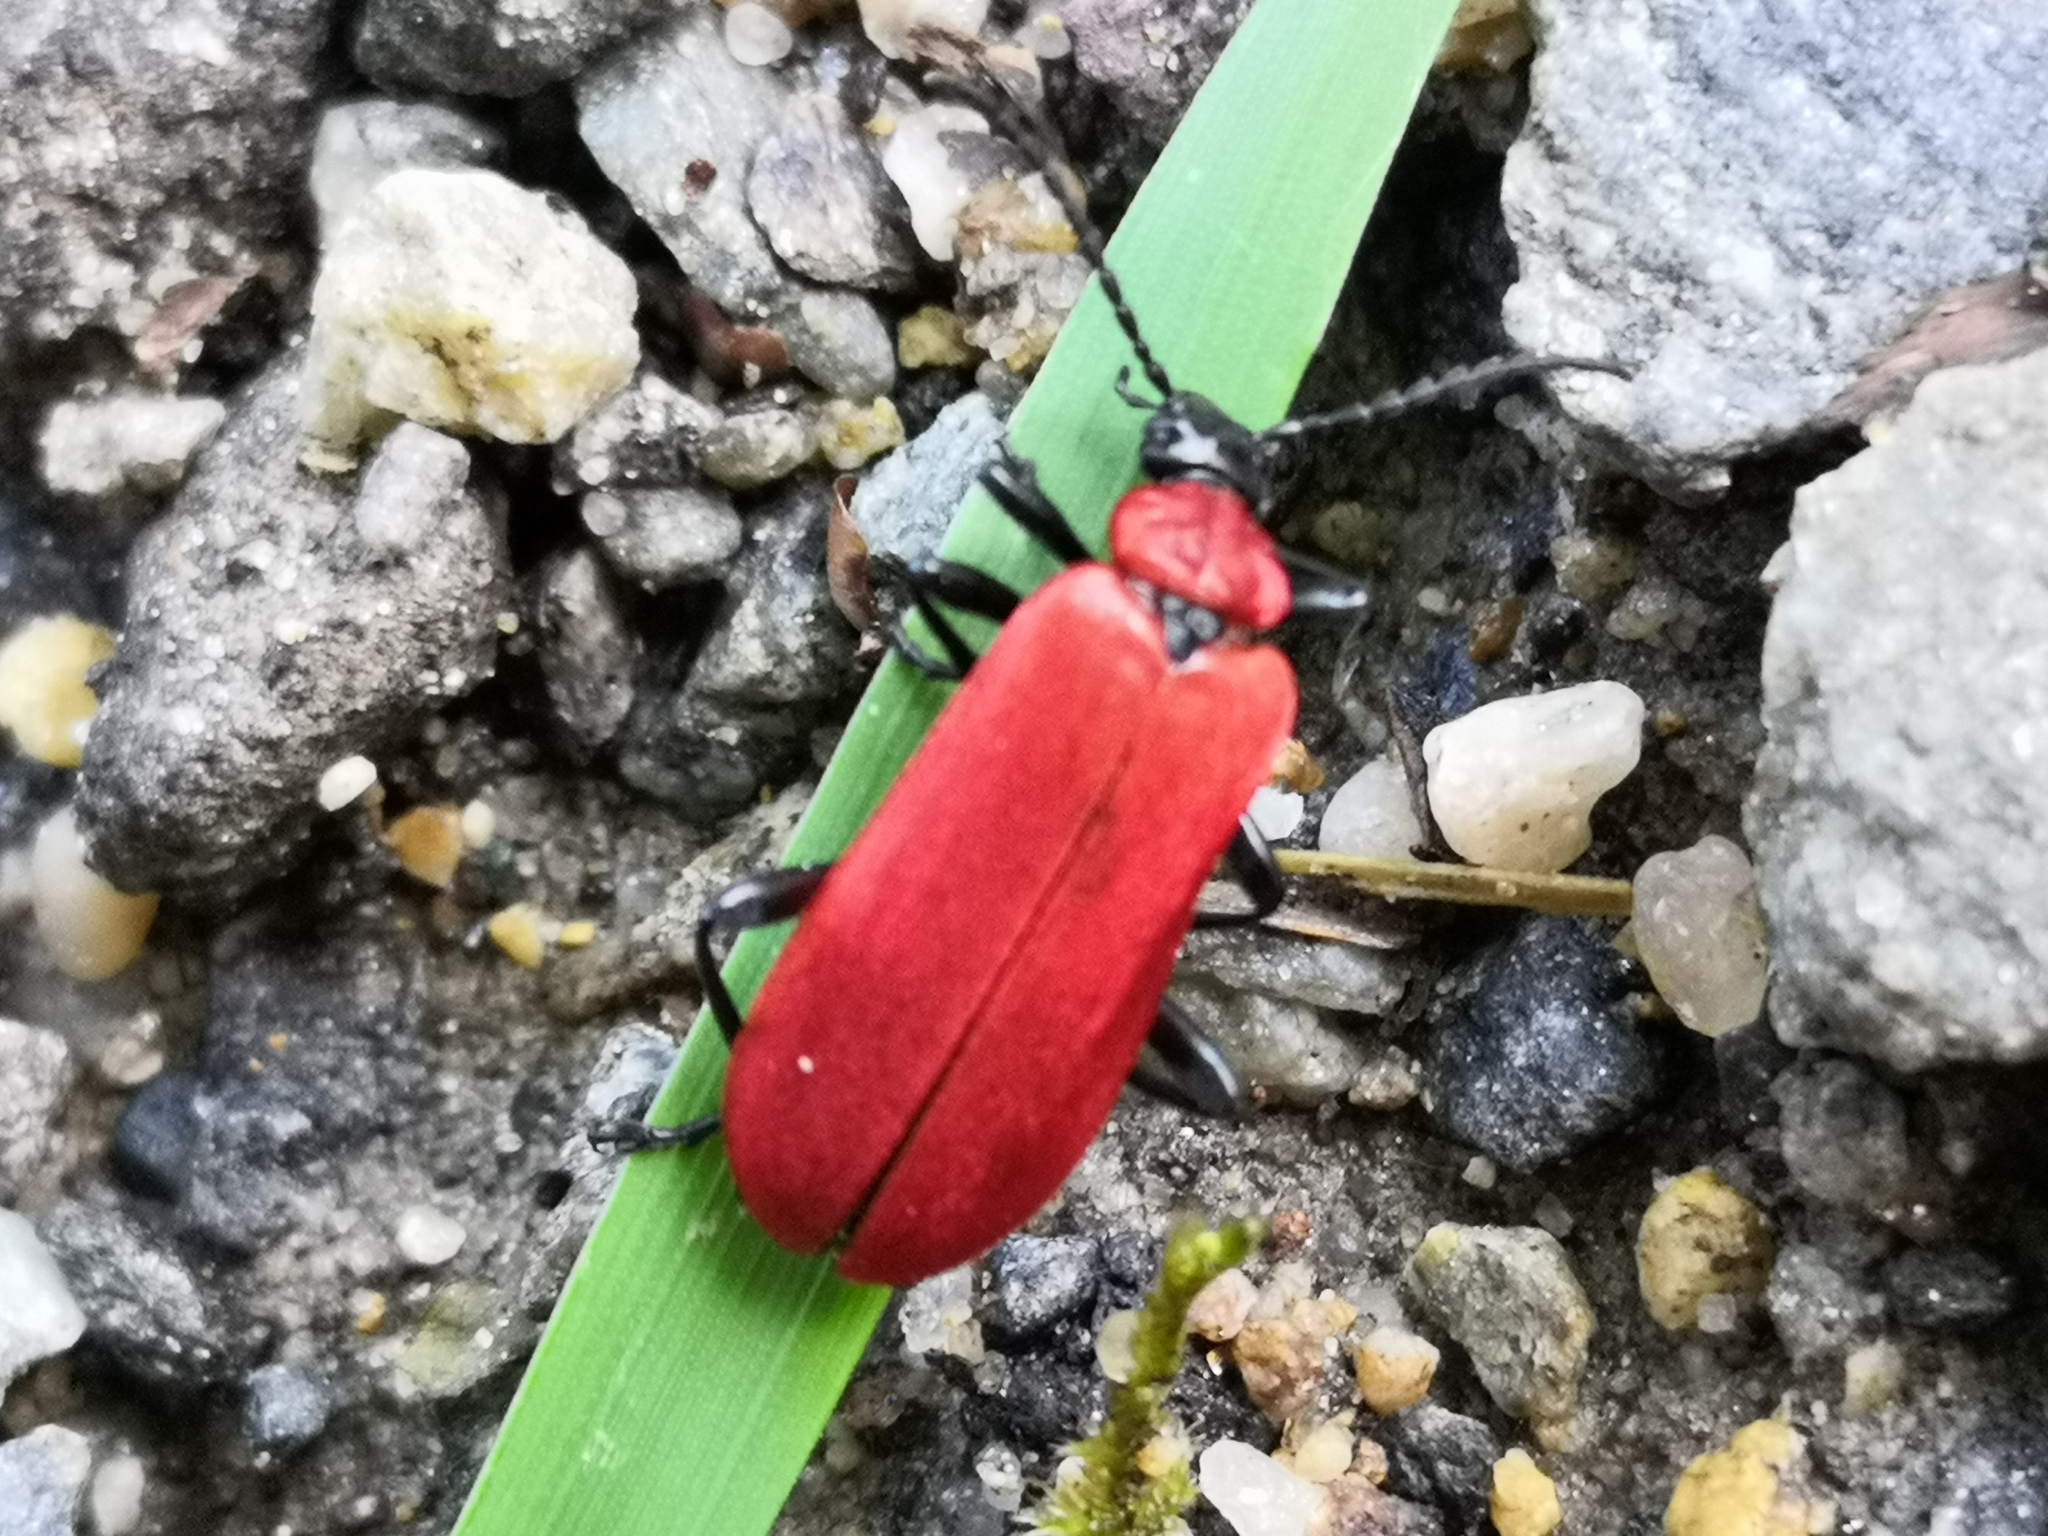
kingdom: Animalia
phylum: Arthropoda
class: Insecta
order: Coleoptera
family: Pyrochroidae
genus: Pyrochroa
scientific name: Pyrochroa coccinea
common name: Black-headed cardinal beetle
